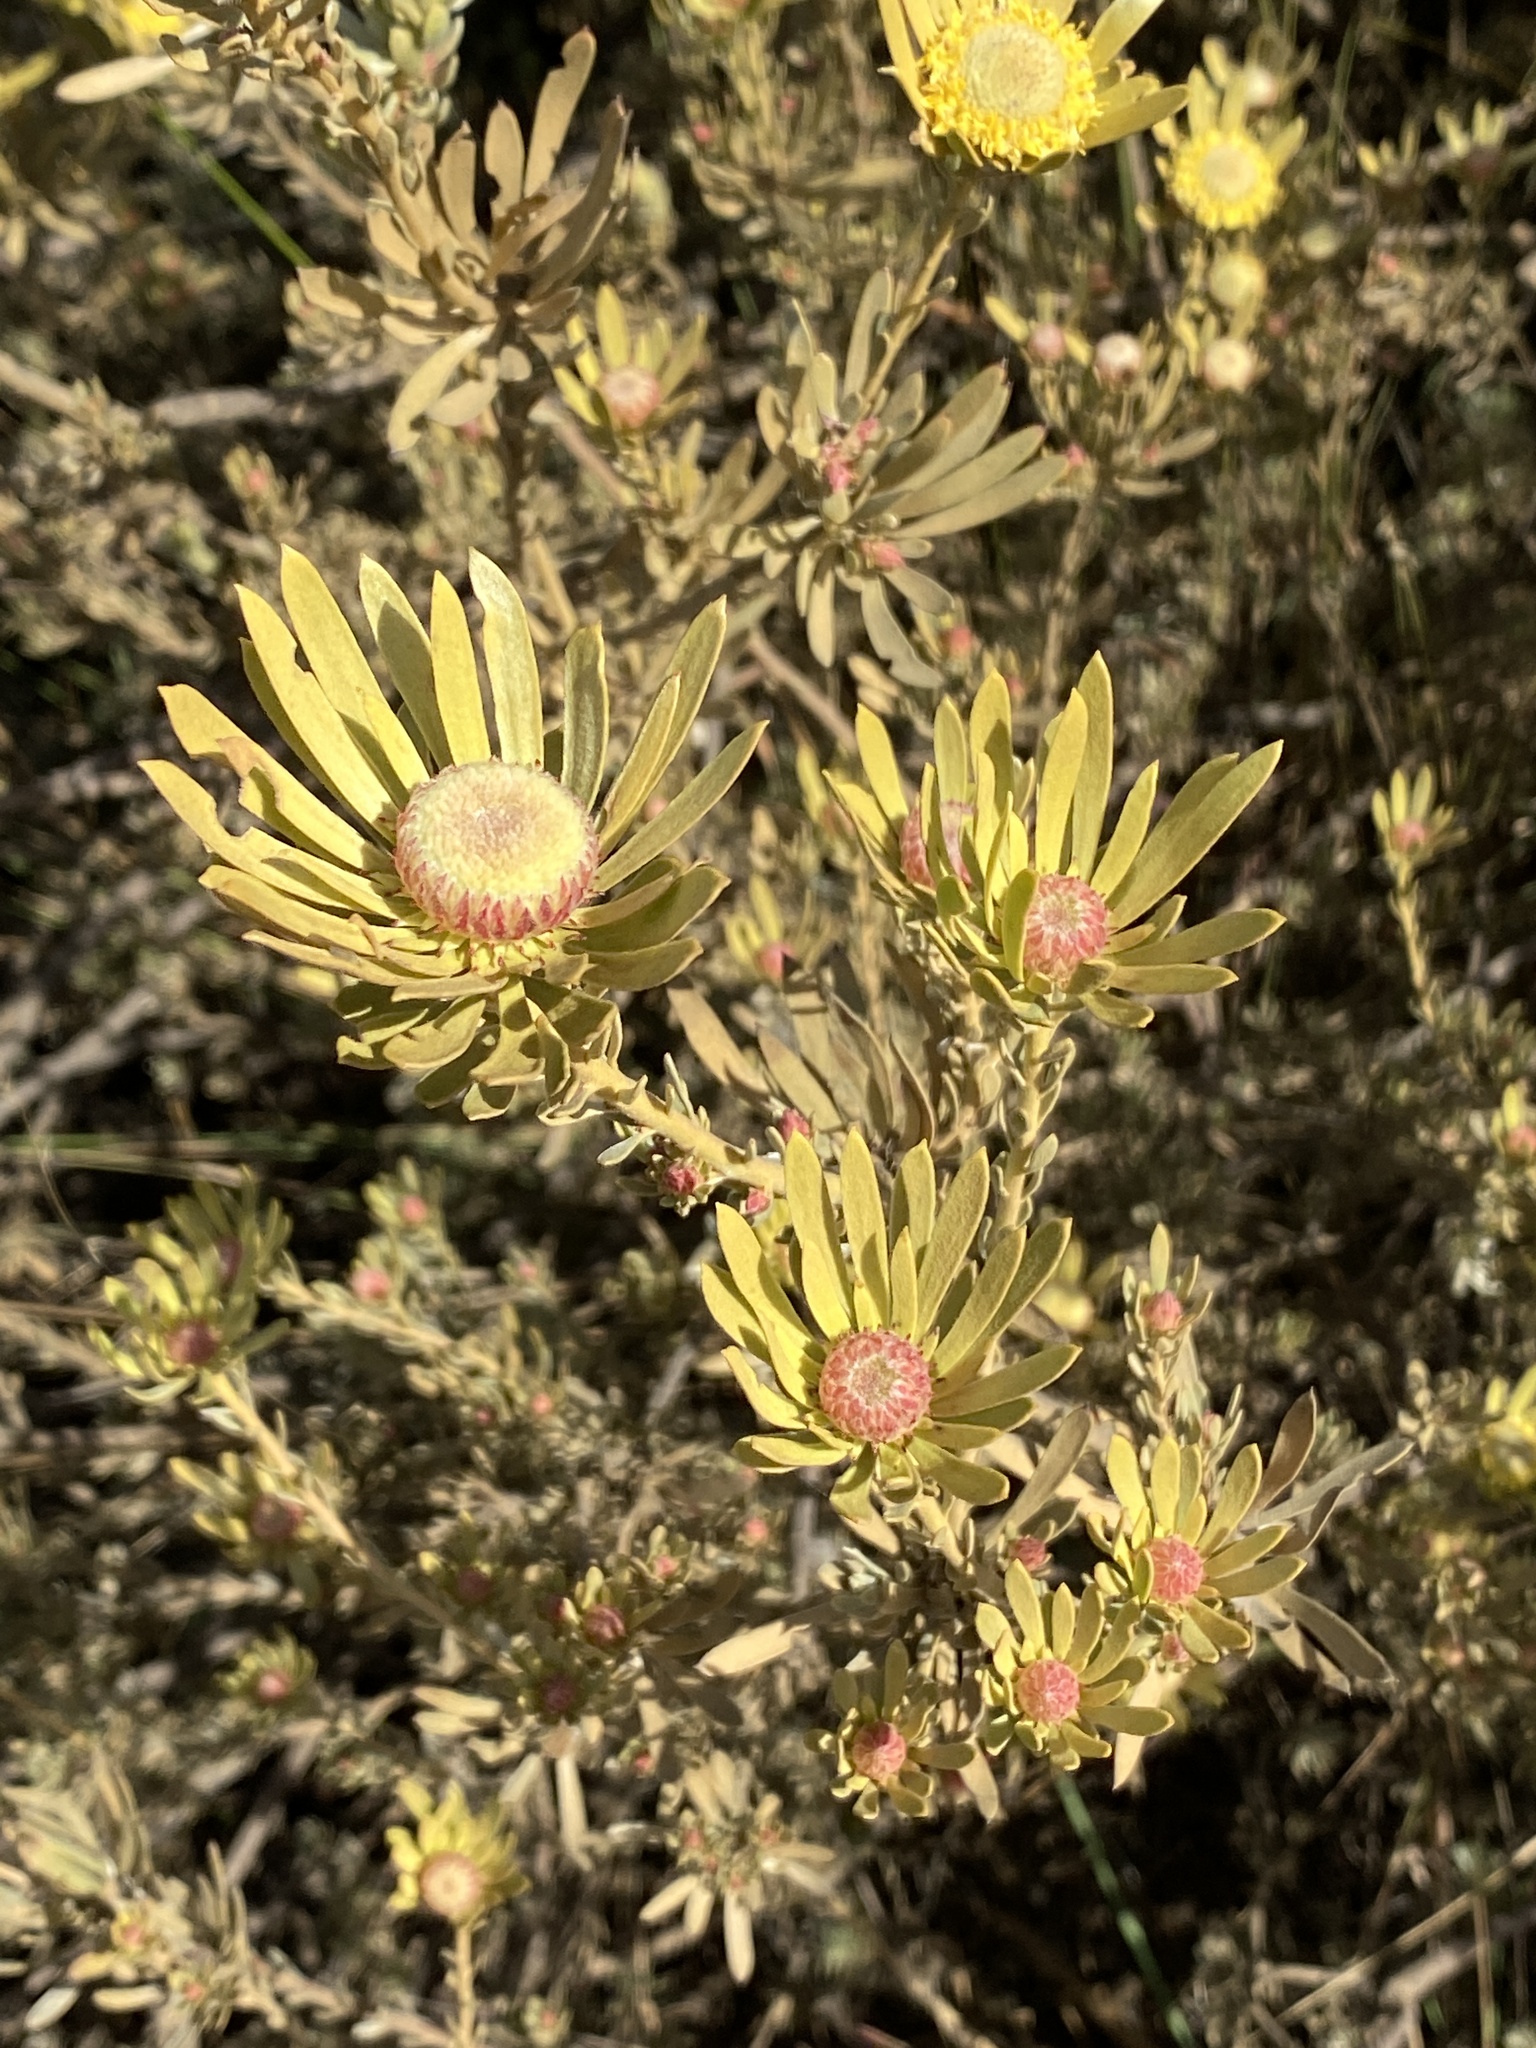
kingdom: Plantae
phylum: Tracheophyta
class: Magnoliopsida
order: Proteales
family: Proteaceae
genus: Leucadendron
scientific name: Leucadendron nitidum
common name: Bokkeveld conebush
